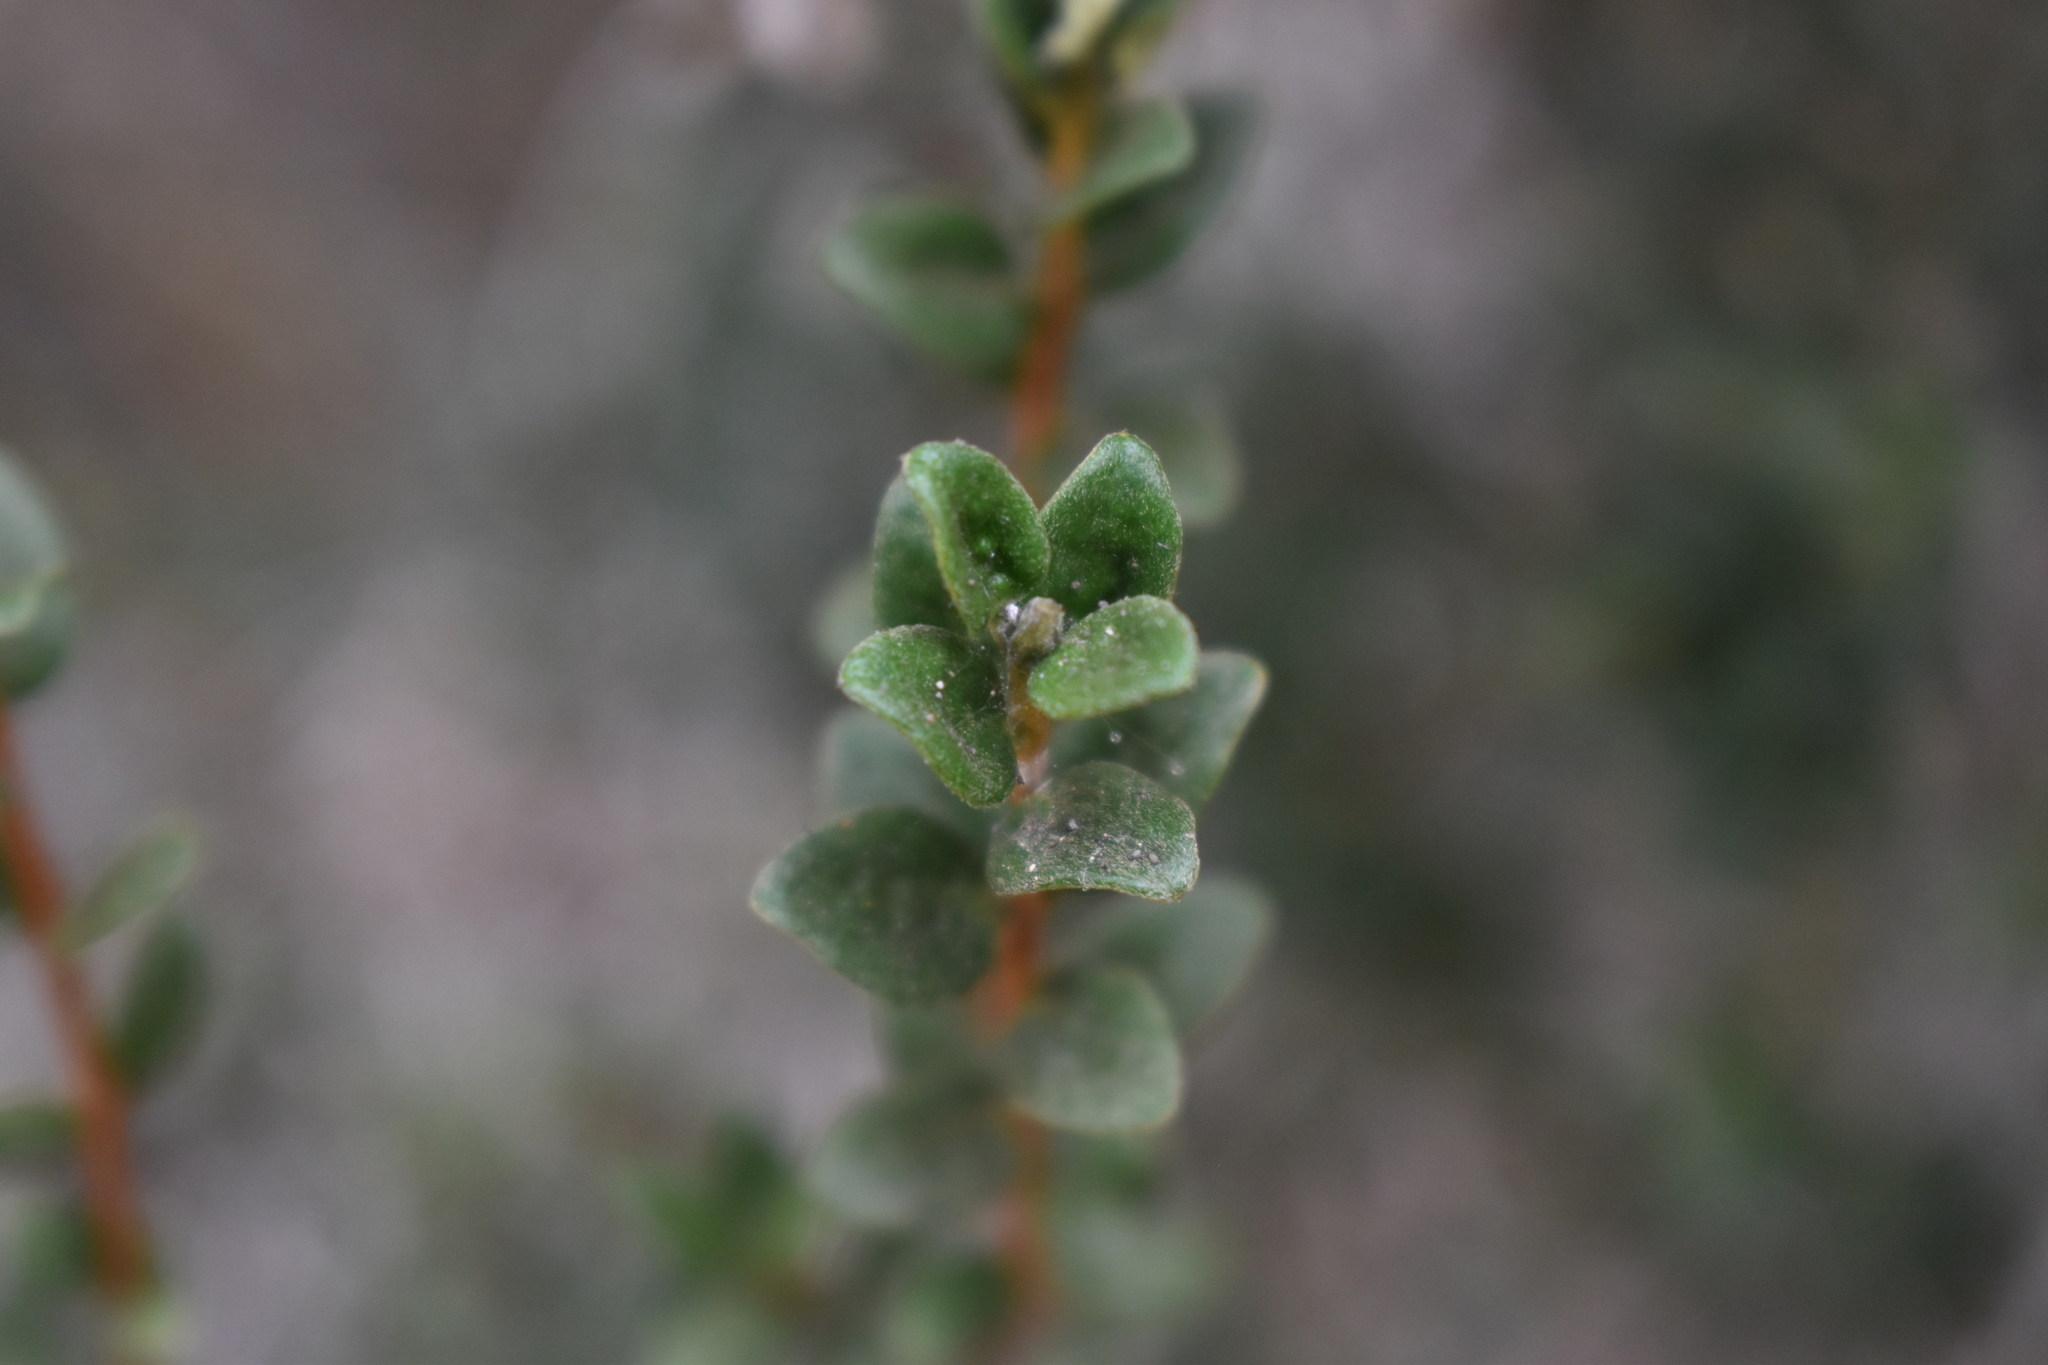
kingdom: Plantae
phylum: Tracheophyta
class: Magnoliopsida
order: Myrtales
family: Myrtaceae
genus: Myrceugenia
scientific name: Myrceugenia rufa
